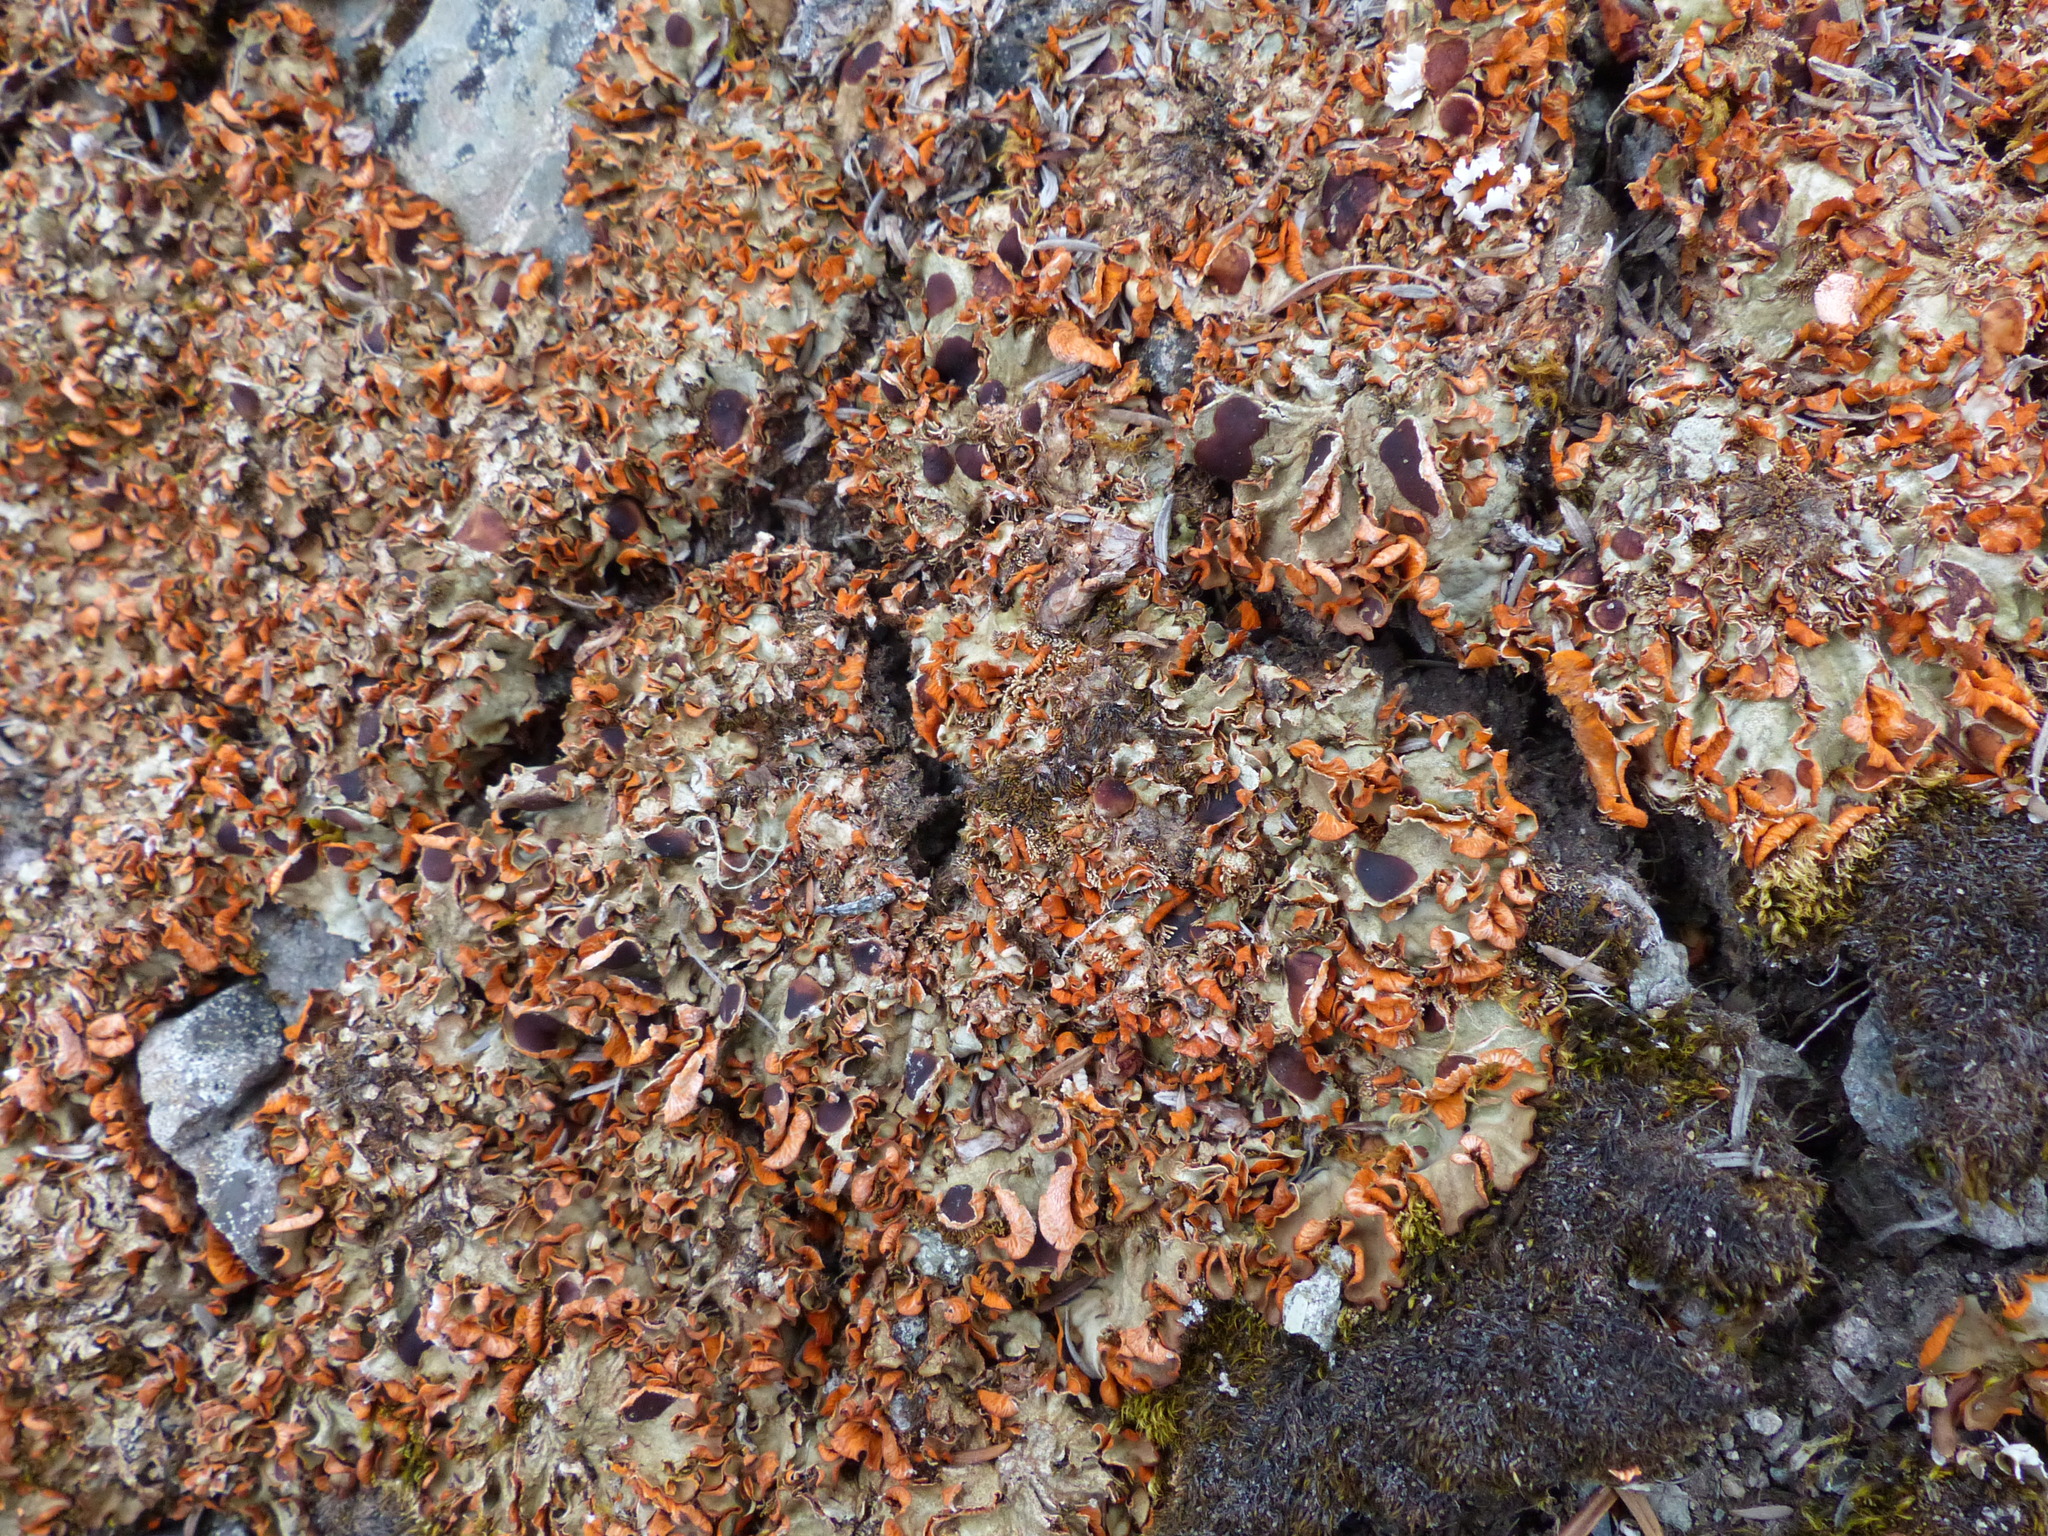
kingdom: Fungi
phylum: Ascomycota
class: Lecanoromycetes
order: Peltigerales
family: Peltigeraceae
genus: Solorina
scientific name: Solorina crocea
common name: Mountain saffron
